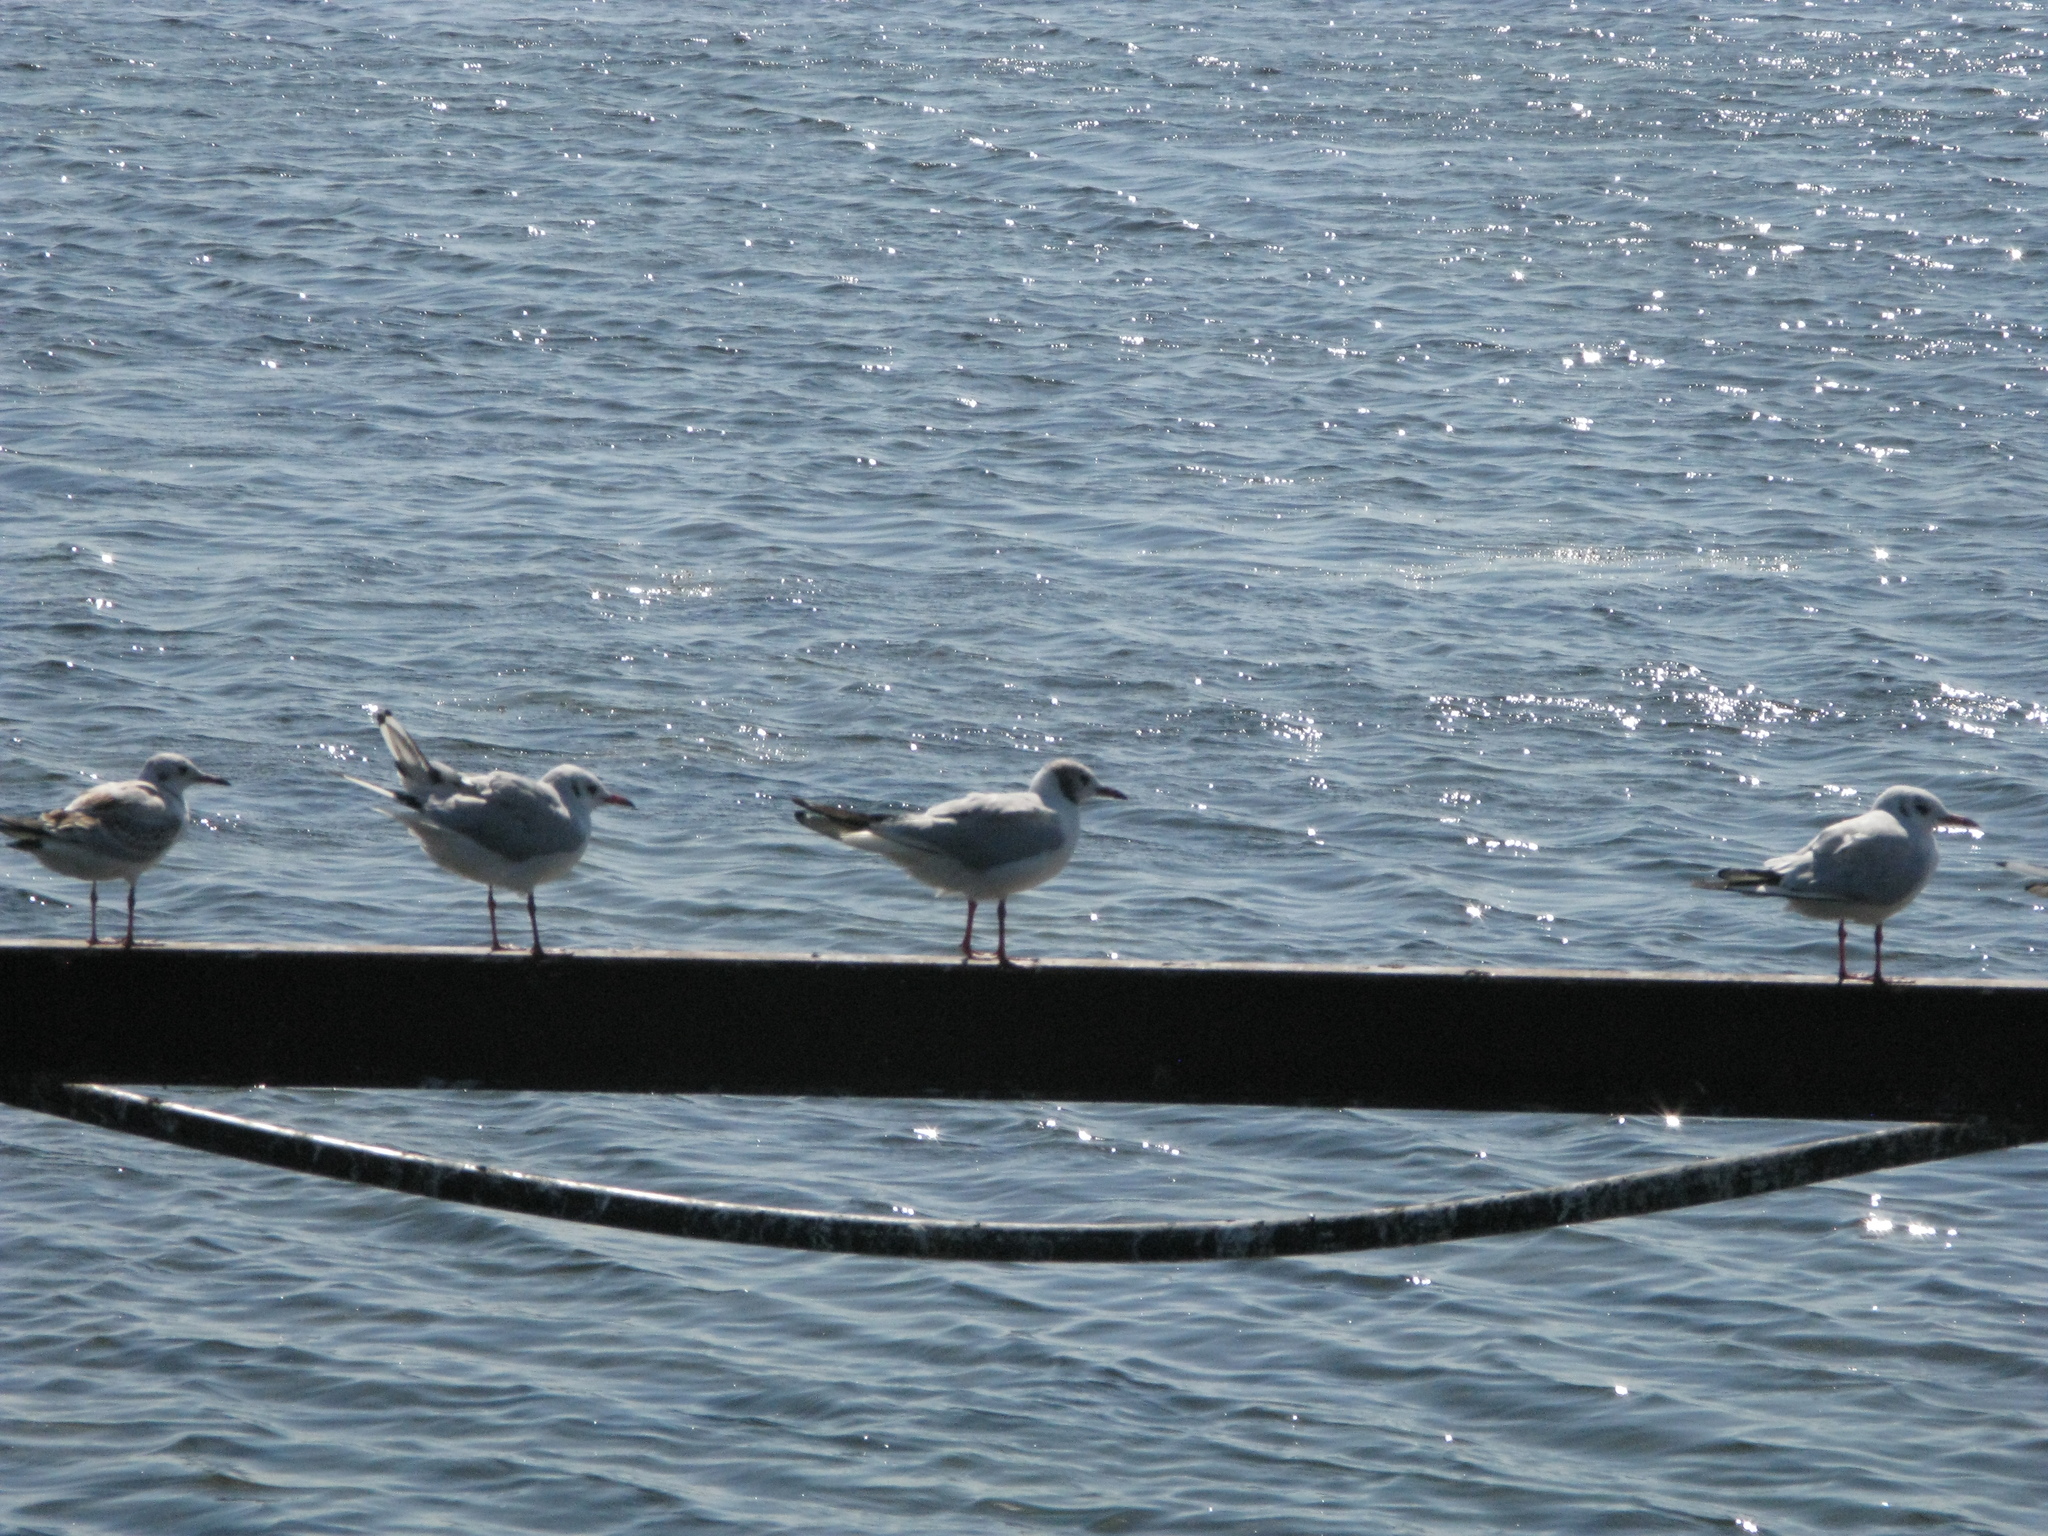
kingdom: Animalia
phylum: Chordata
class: Aves
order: Charadriiformes
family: Laridae
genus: Chroicocephalus
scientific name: Chroicocephalus ridibundus
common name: Black-headed gull
